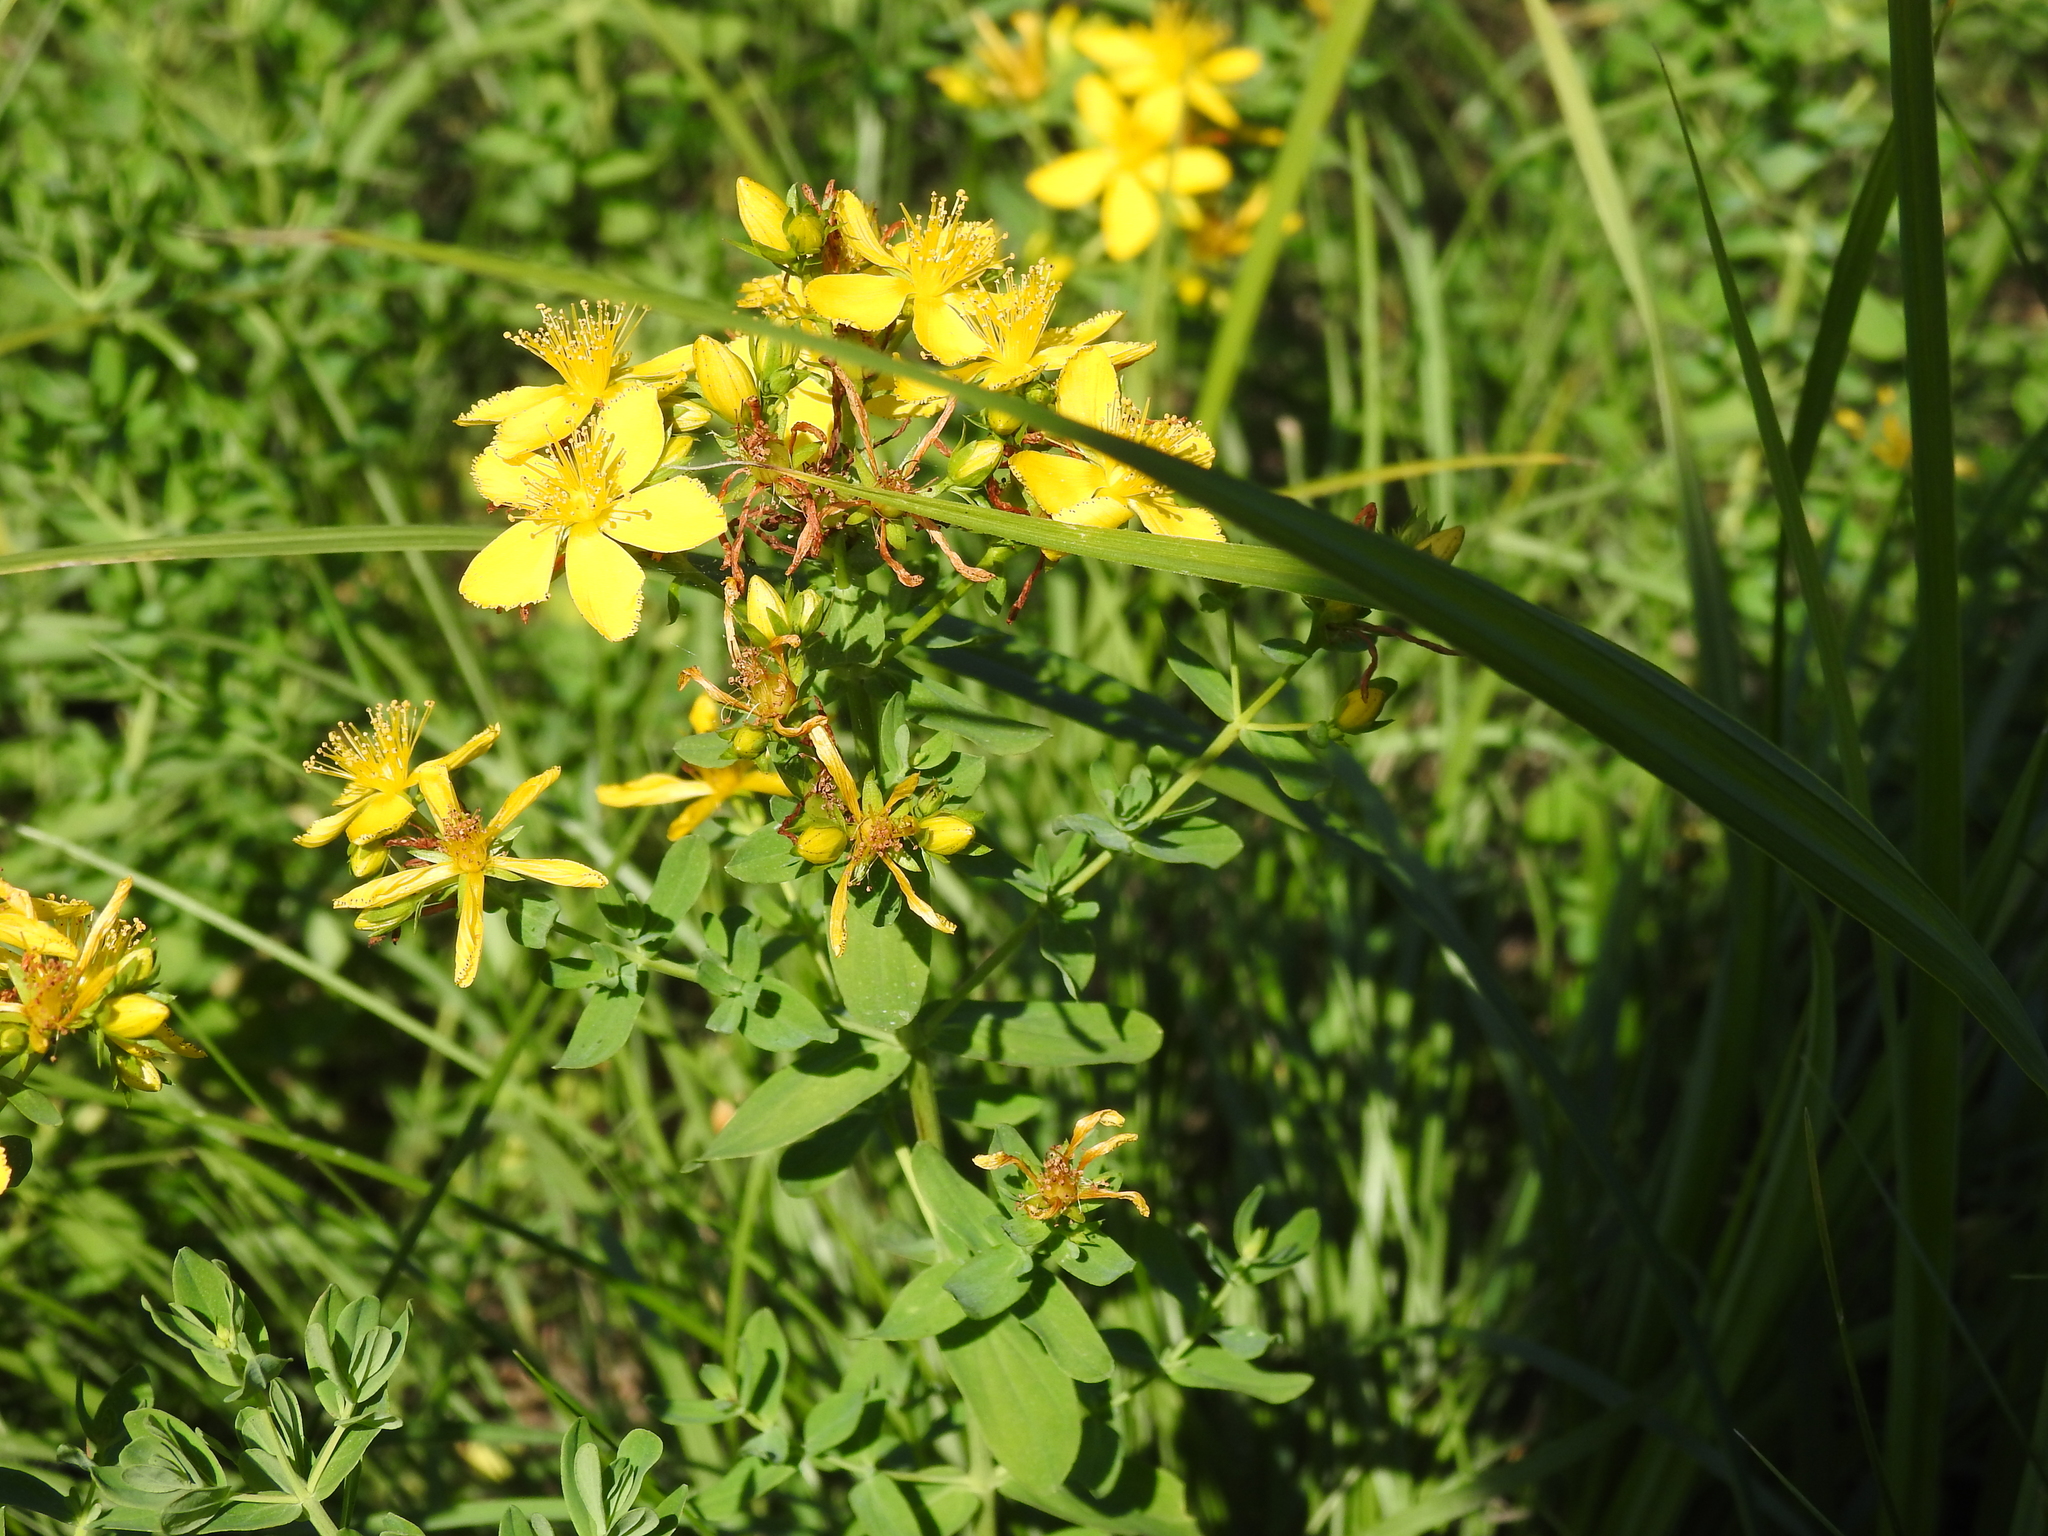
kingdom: Plantae
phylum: Tracheophyta
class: Magnoliopsida
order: Malpighiales
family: Hypericaceae
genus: Hypericum
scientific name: Hypericum perforatum
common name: Common st. johnswort
